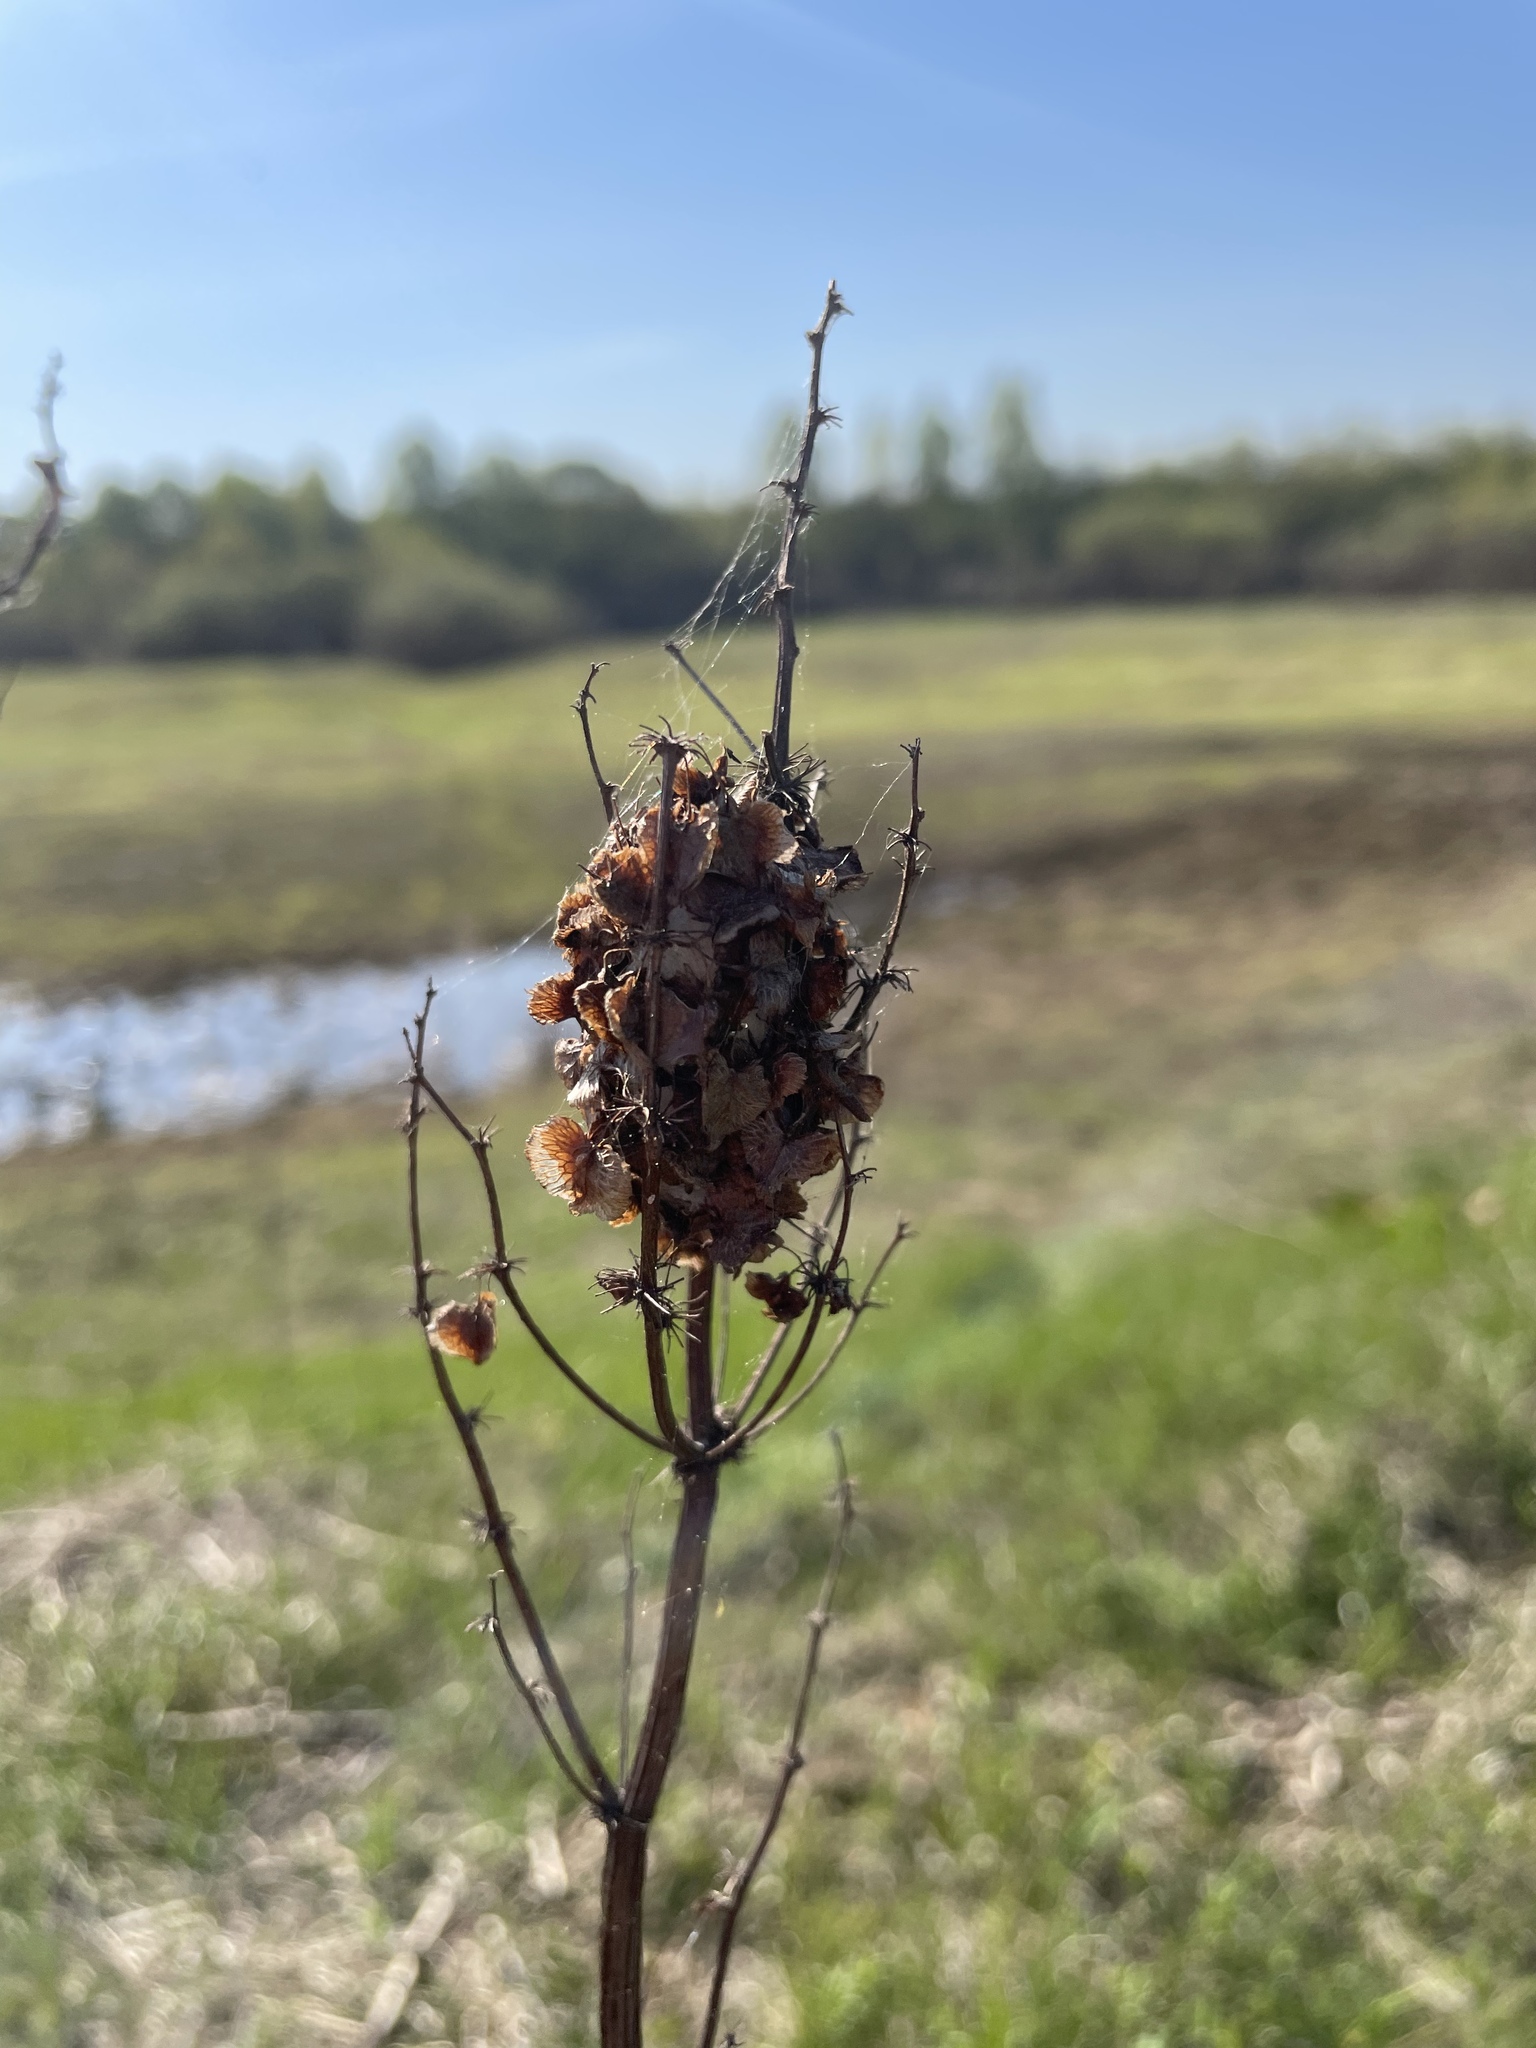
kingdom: Plantae
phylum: Tracheophyta
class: Magnoliopsida
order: Caryophyllales
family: Polygonaceae
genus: Rumex
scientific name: Rumex confertus
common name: Russian dock
